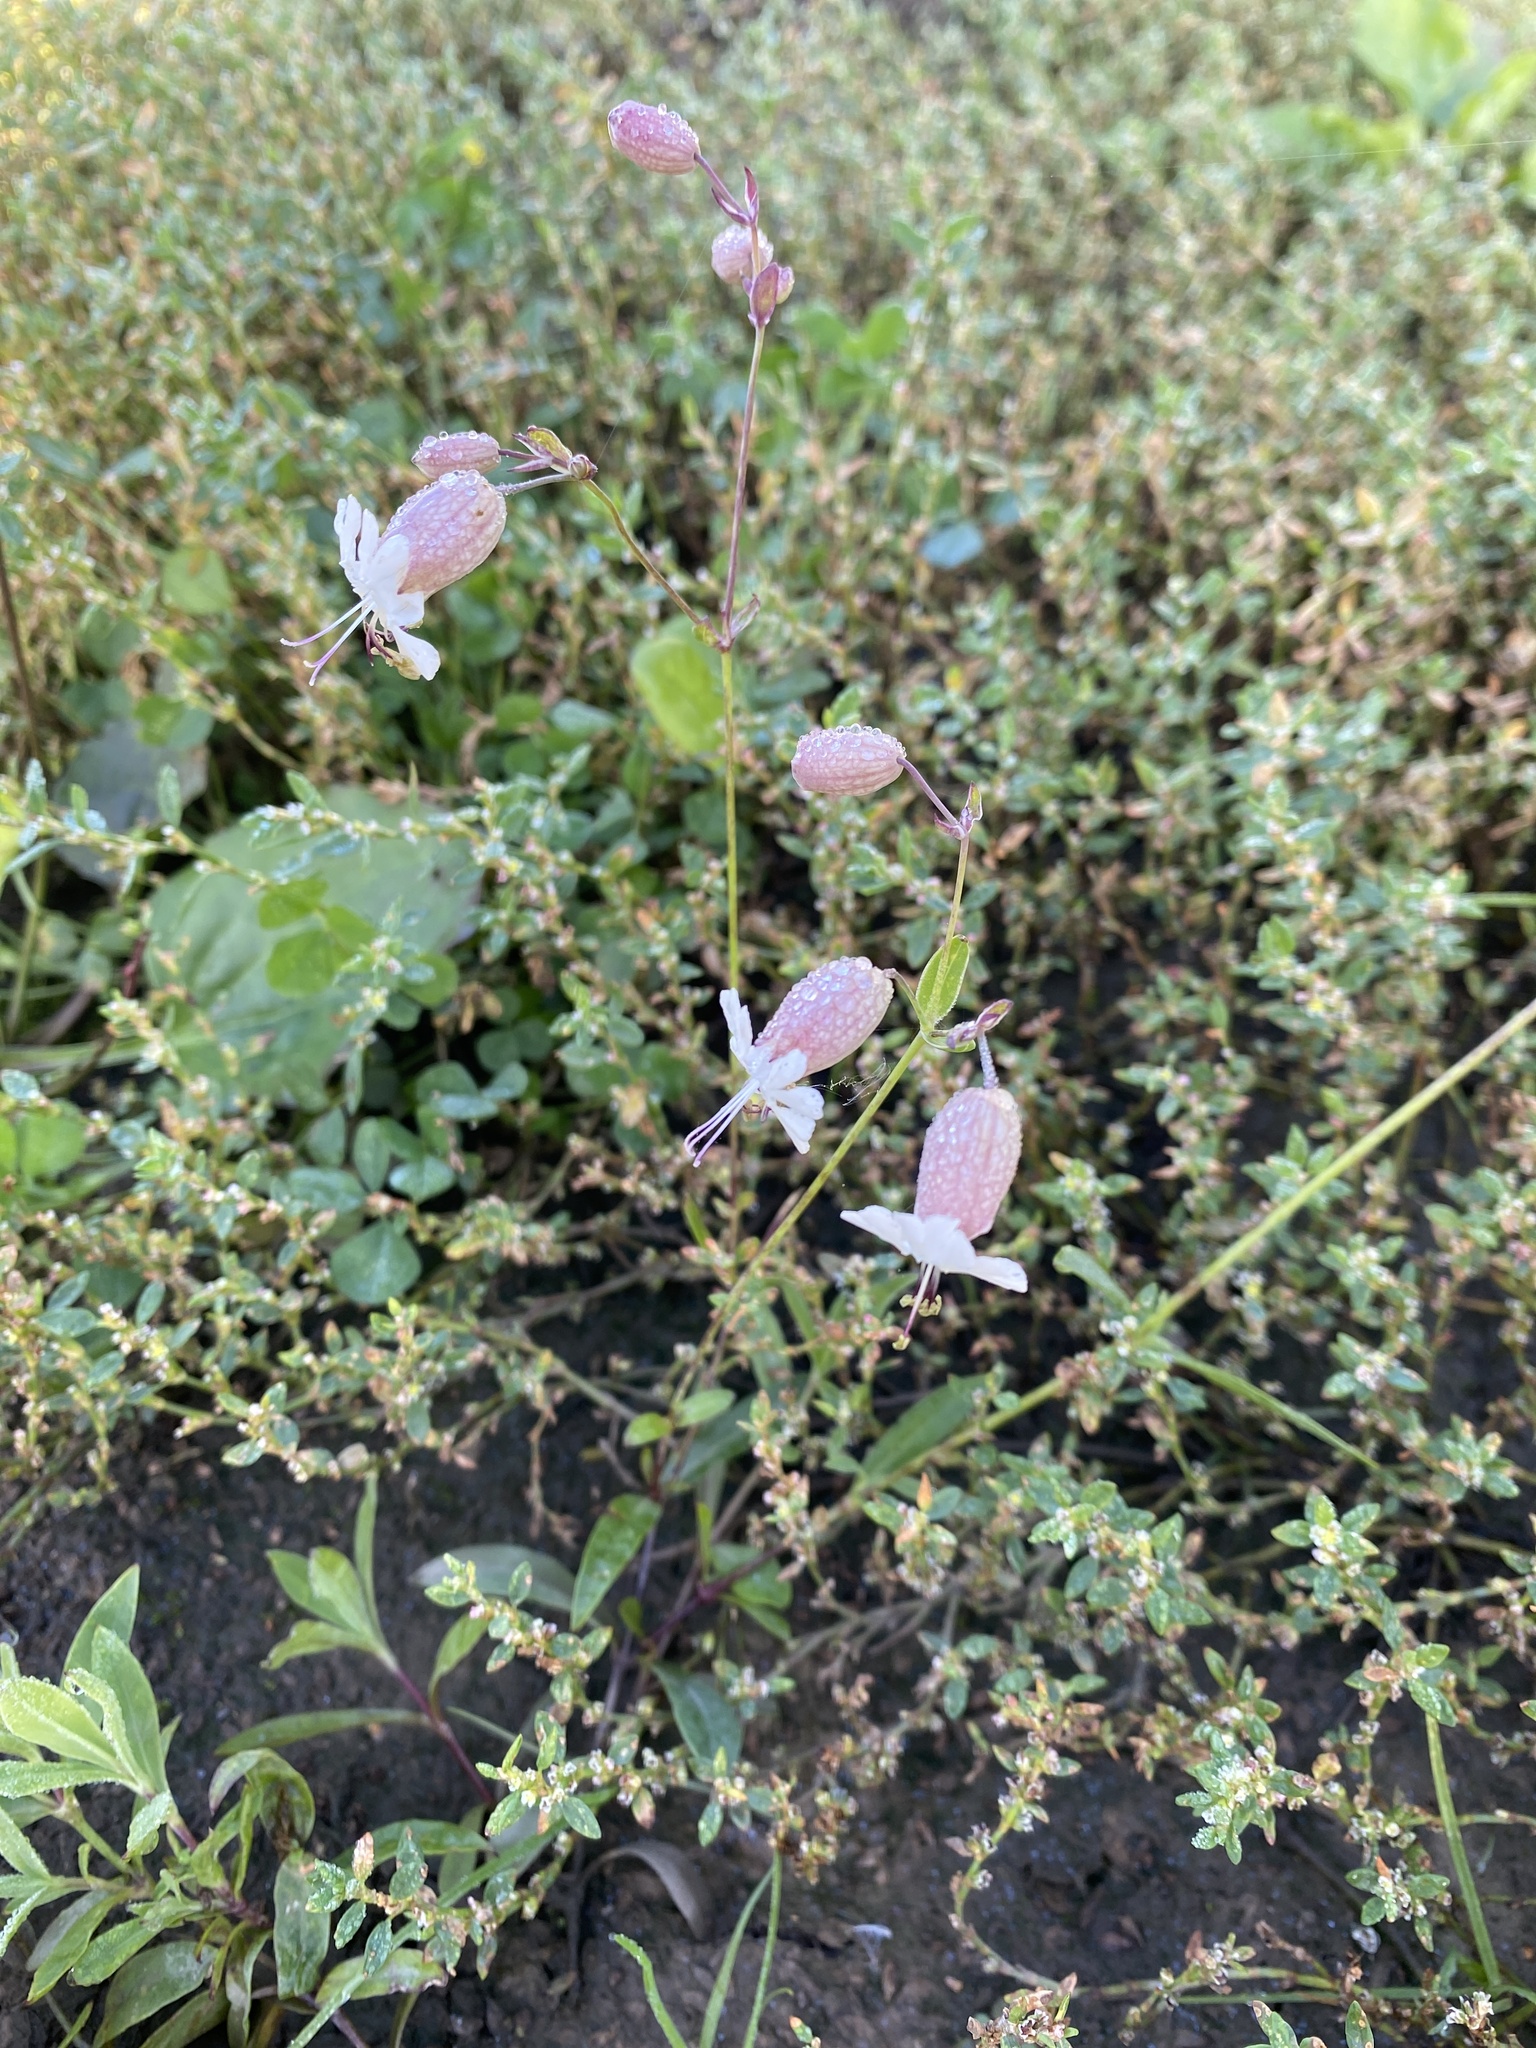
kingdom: Plantae
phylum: Tracheophyta
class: Magnoliopsida
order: Caryophyllales
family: Caryophyllaceae
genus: Silene
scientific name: Silene vulgaris
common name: Bladder campion
